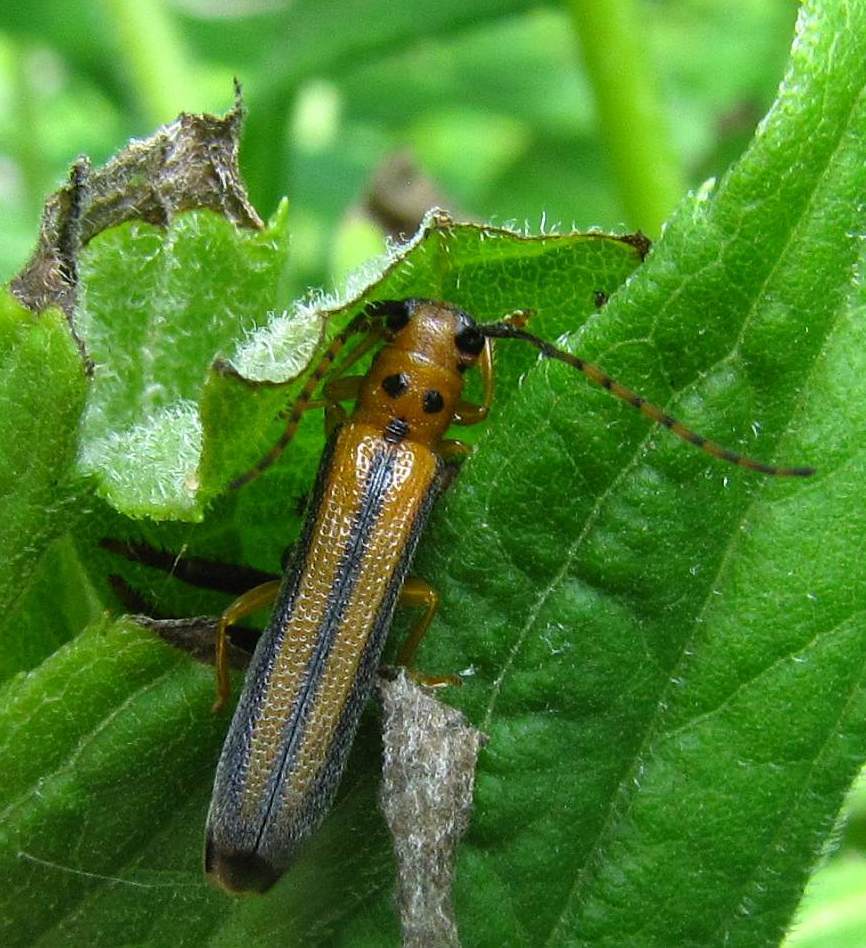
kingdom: Animalia
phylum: Arthropoda
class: Insecta
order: Coleoptera
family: Cerambycidae
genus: Oberea
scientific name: Oberea tripunctata
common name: Dogwood twig borer
